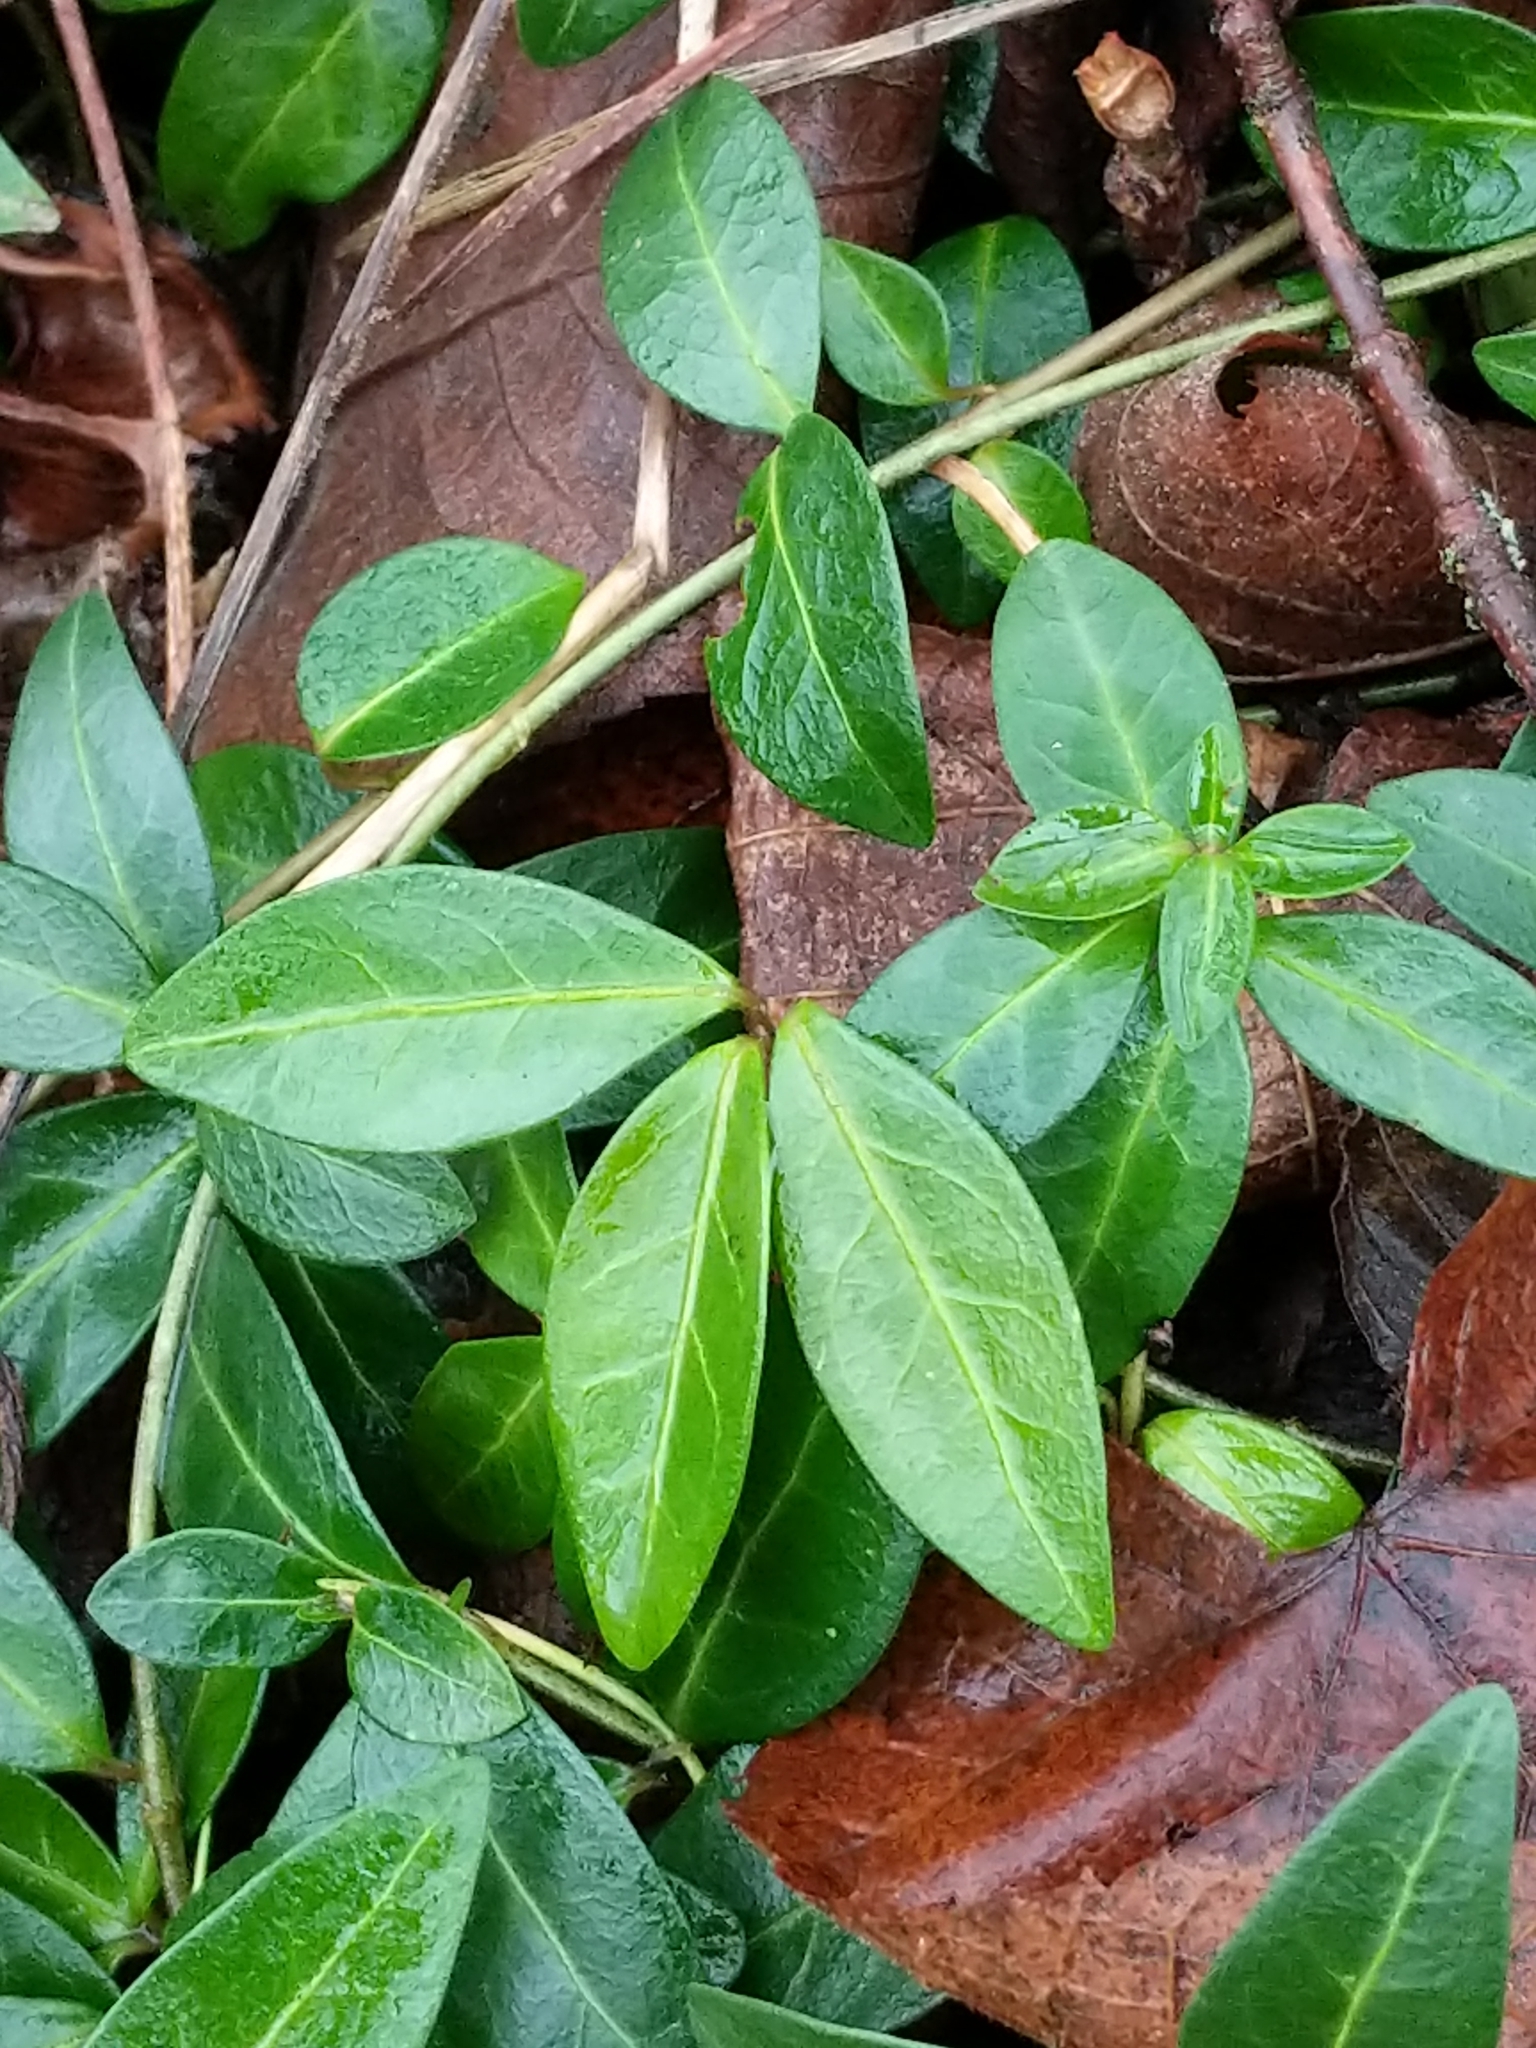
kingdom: Plantae
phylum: Tracheophyta
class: Magnoliopsida
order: Gentianales
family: Apocynaceae
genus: Vinca
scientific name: Vinca minor
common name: Lesser periwinkle
